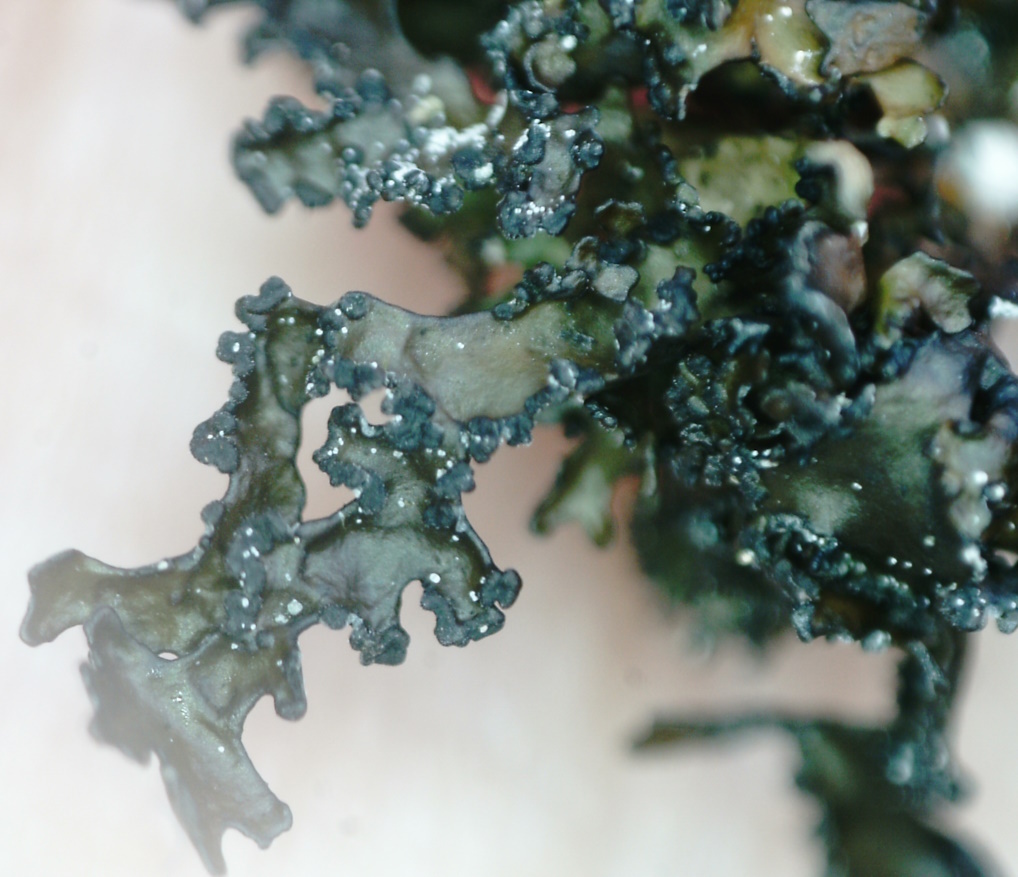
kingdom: Fungi
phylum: Ascomycota
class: Lecanoromycetes
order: Lecanorales
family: Parmeliaceae
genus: Melanelia
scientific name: Melanelia commixta
